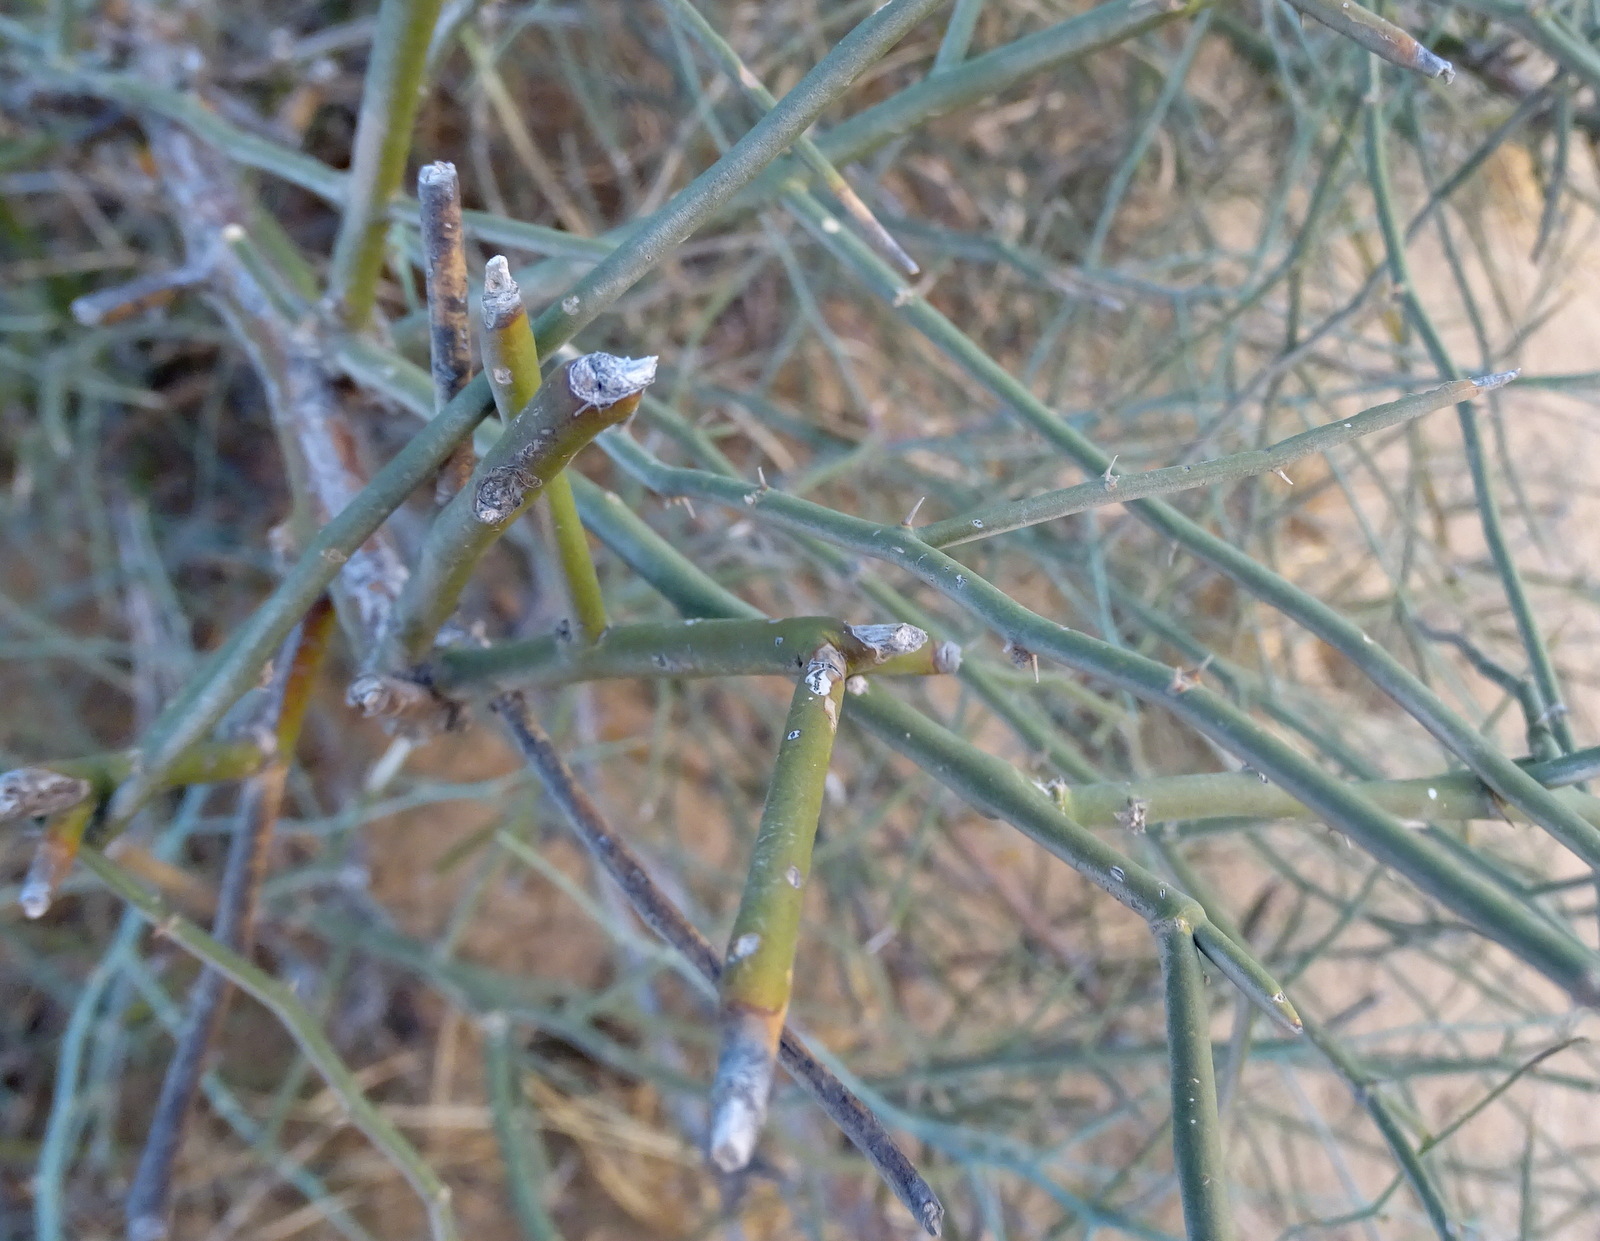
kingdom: Plantae
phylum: Tracheophyta
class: Magnoliopsida
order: Brassicales
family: Capparaceae
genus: Capparis
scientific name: Capparis decidua
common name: Sodada
